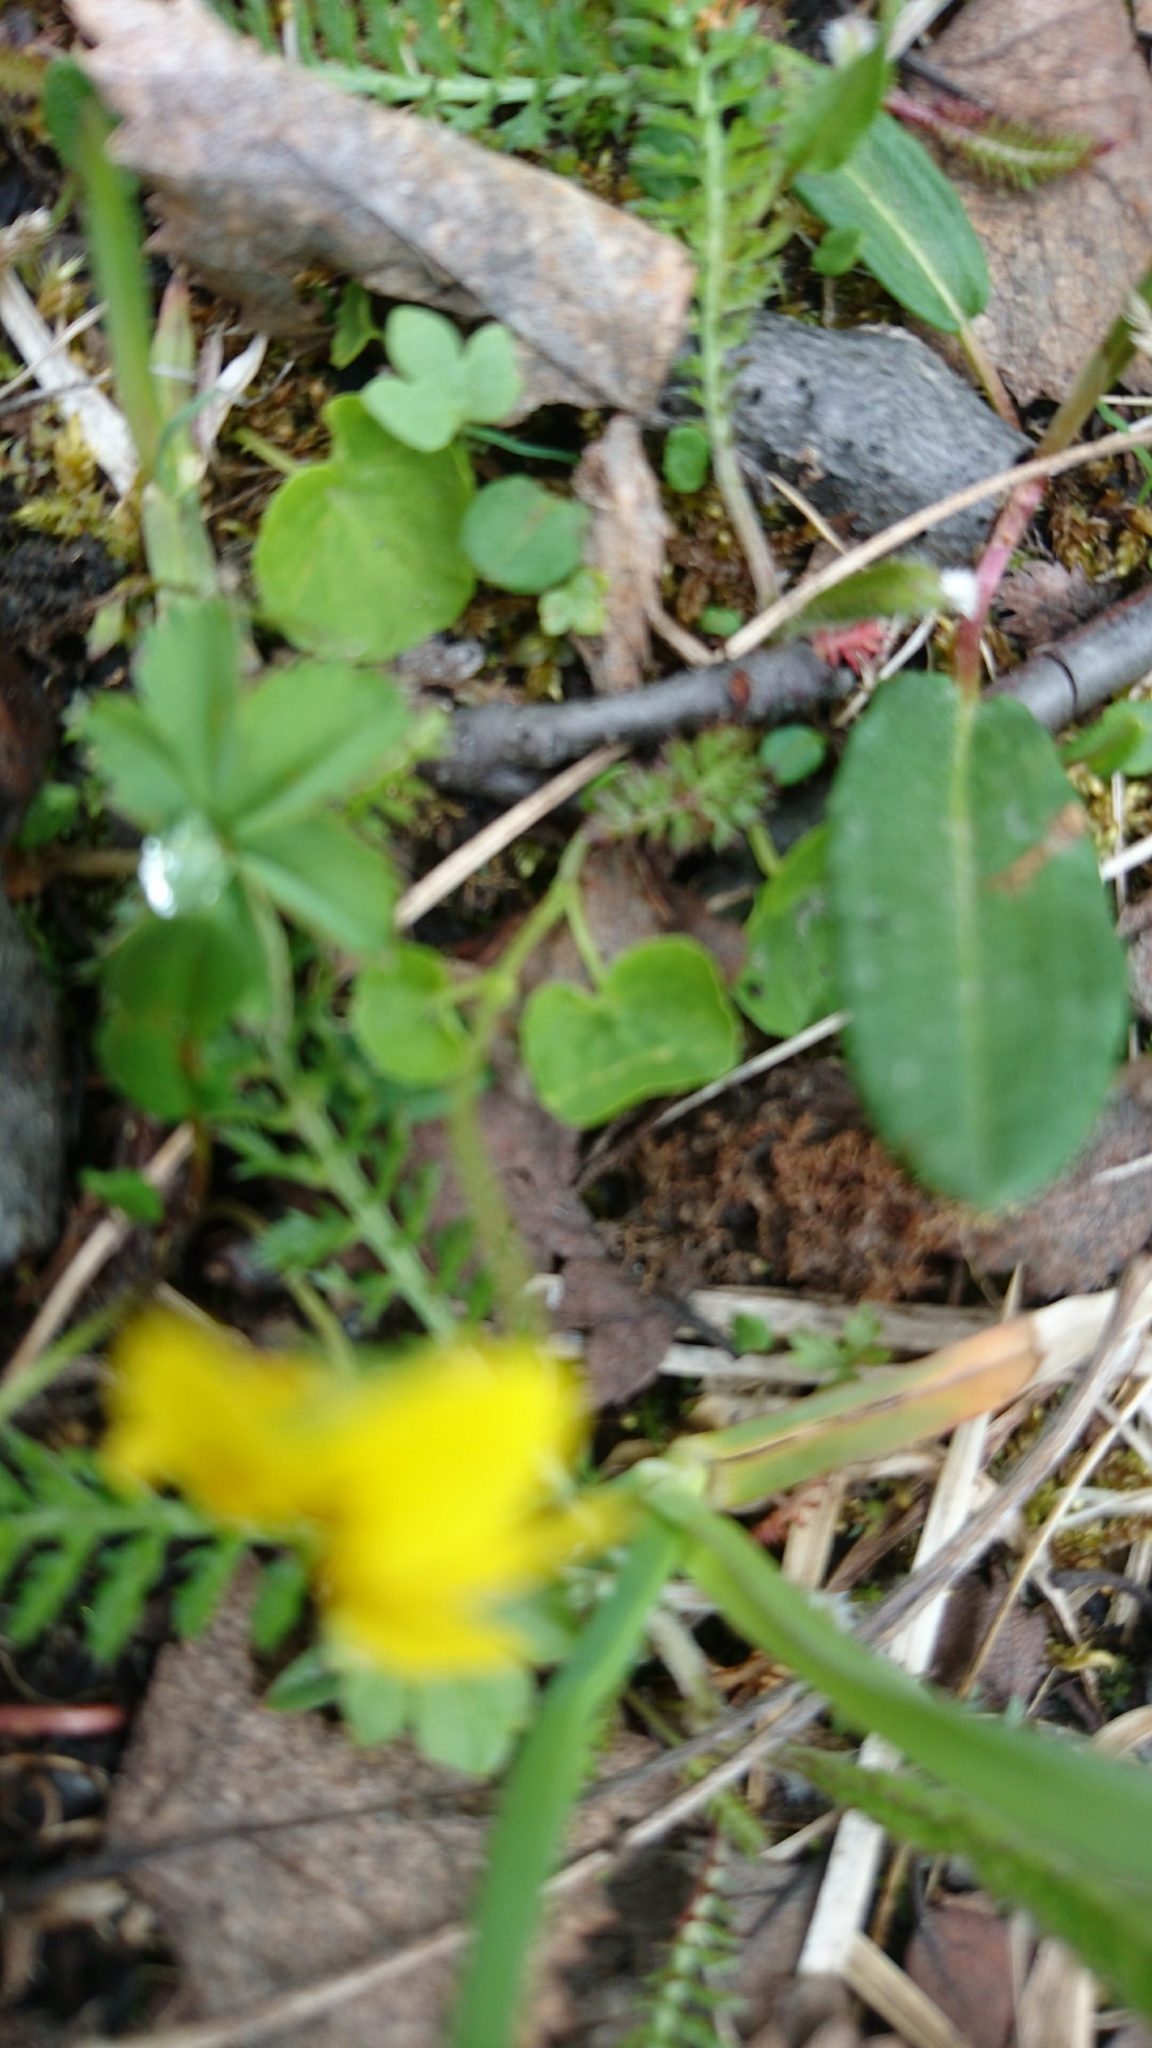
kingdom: Plantae
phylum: Tracheophyta
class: Magnoliopsida
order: Malpighiales
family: Violaceae
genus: Viola
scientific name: Viola biflora
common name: Alpine yellow violet
